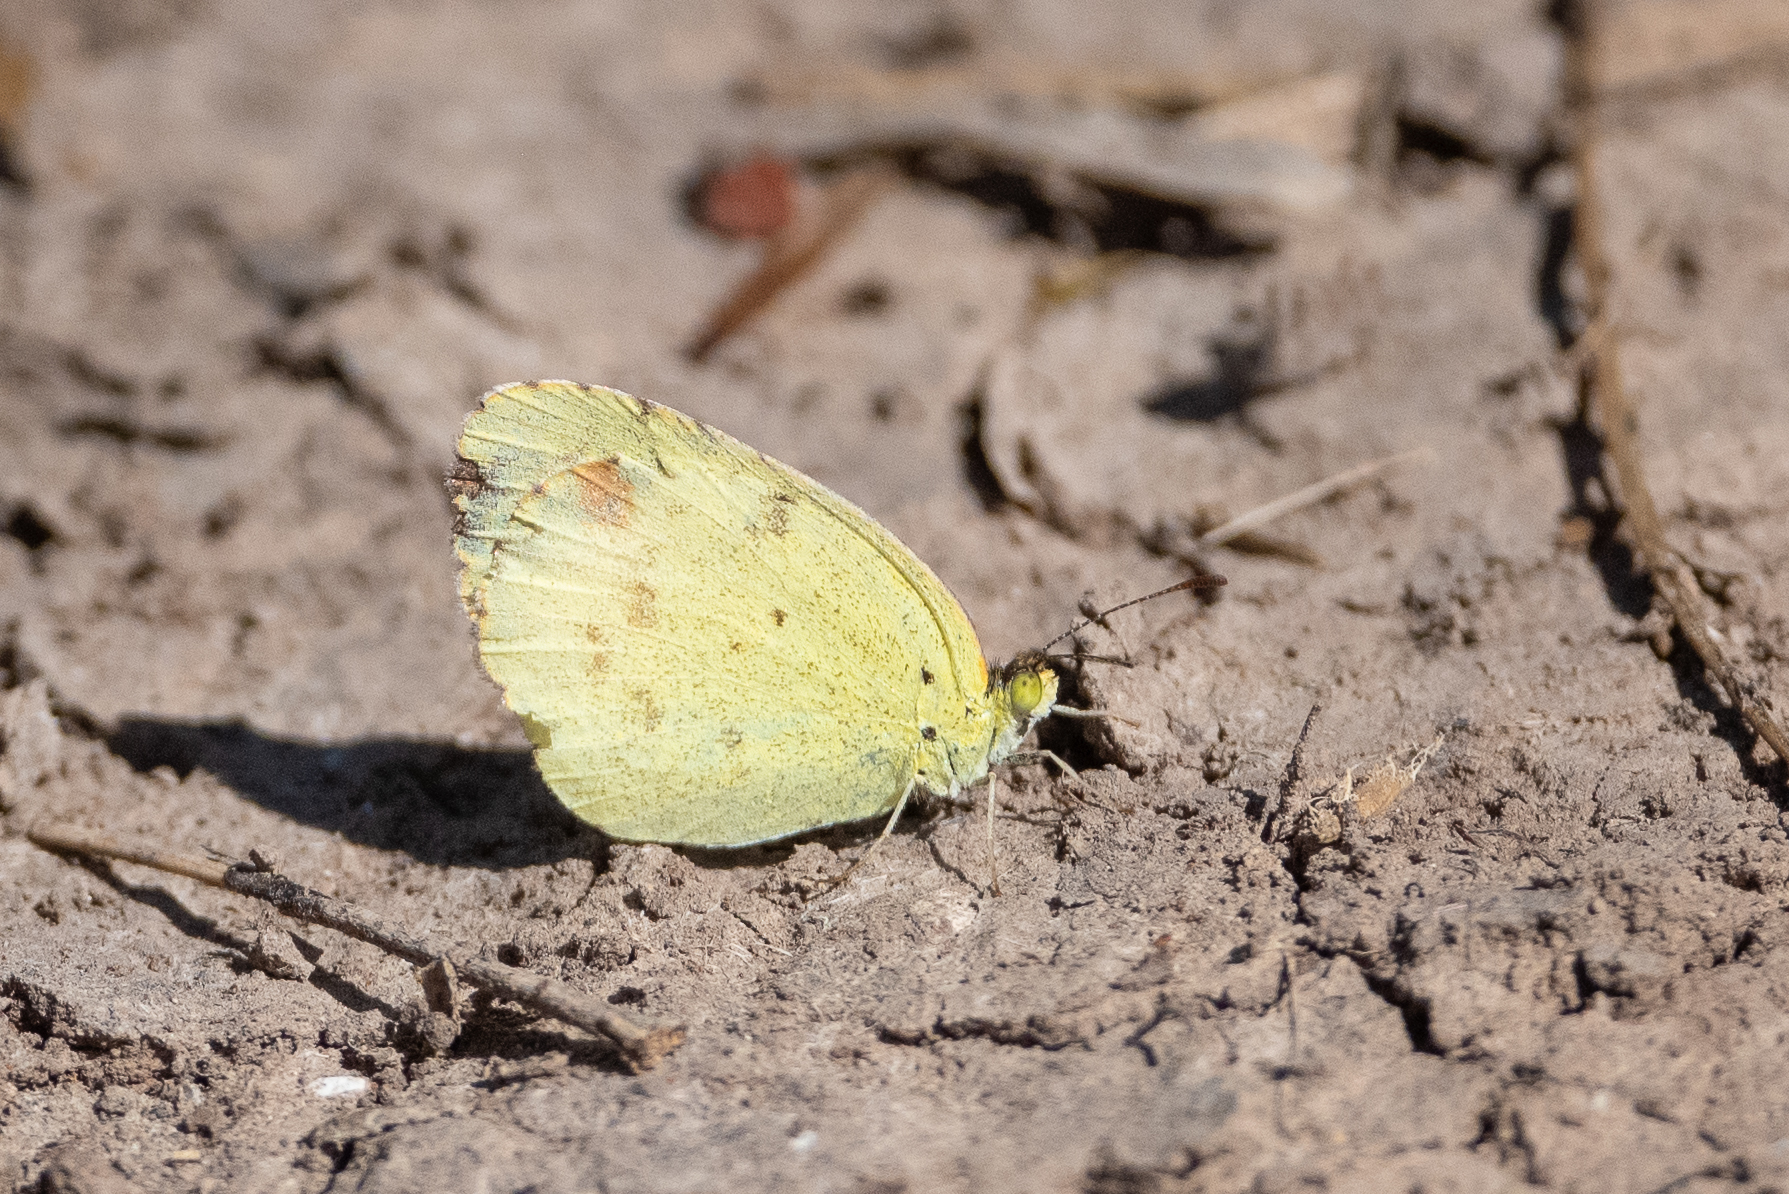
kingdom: Animalia
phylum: Arthropoda
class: Insecta
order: Lepidoptera
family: Pieridae
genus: Pyrisitia
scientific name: Pyrisitia lisa
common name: Little yellow
